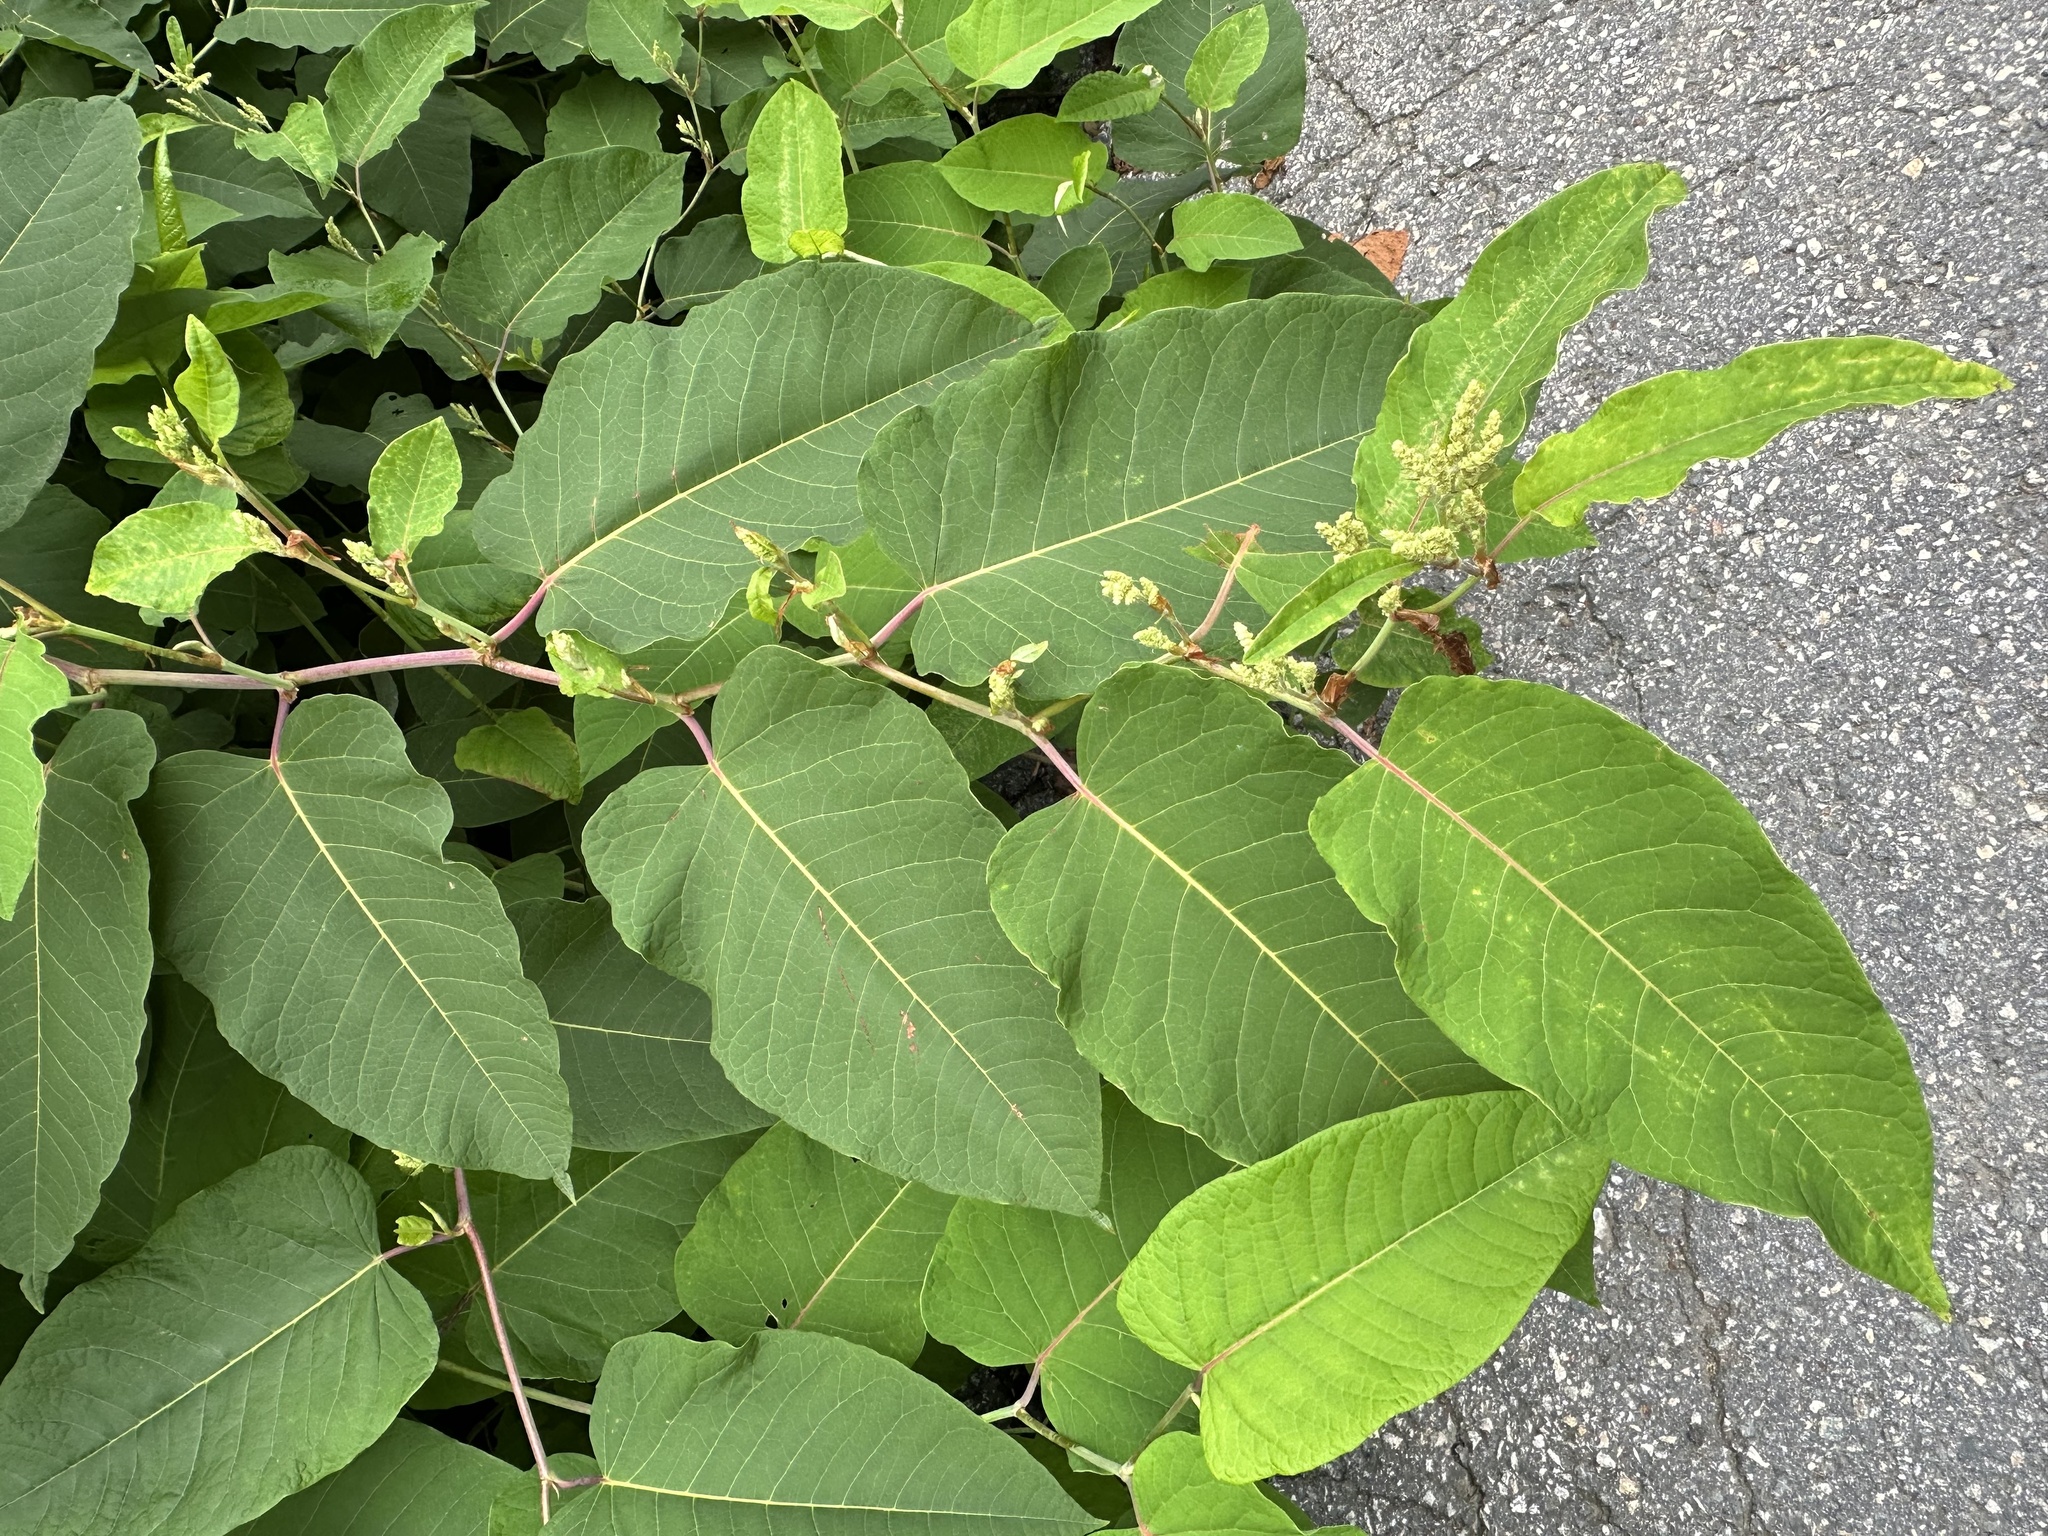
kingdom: Plantae
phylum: Tracheophyta
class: Magnoliopsida
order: Caryophyllales
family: Polygonaceae
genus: Reynoutria
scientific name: Reynoutria sachalinensis
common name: Giant knotweed
